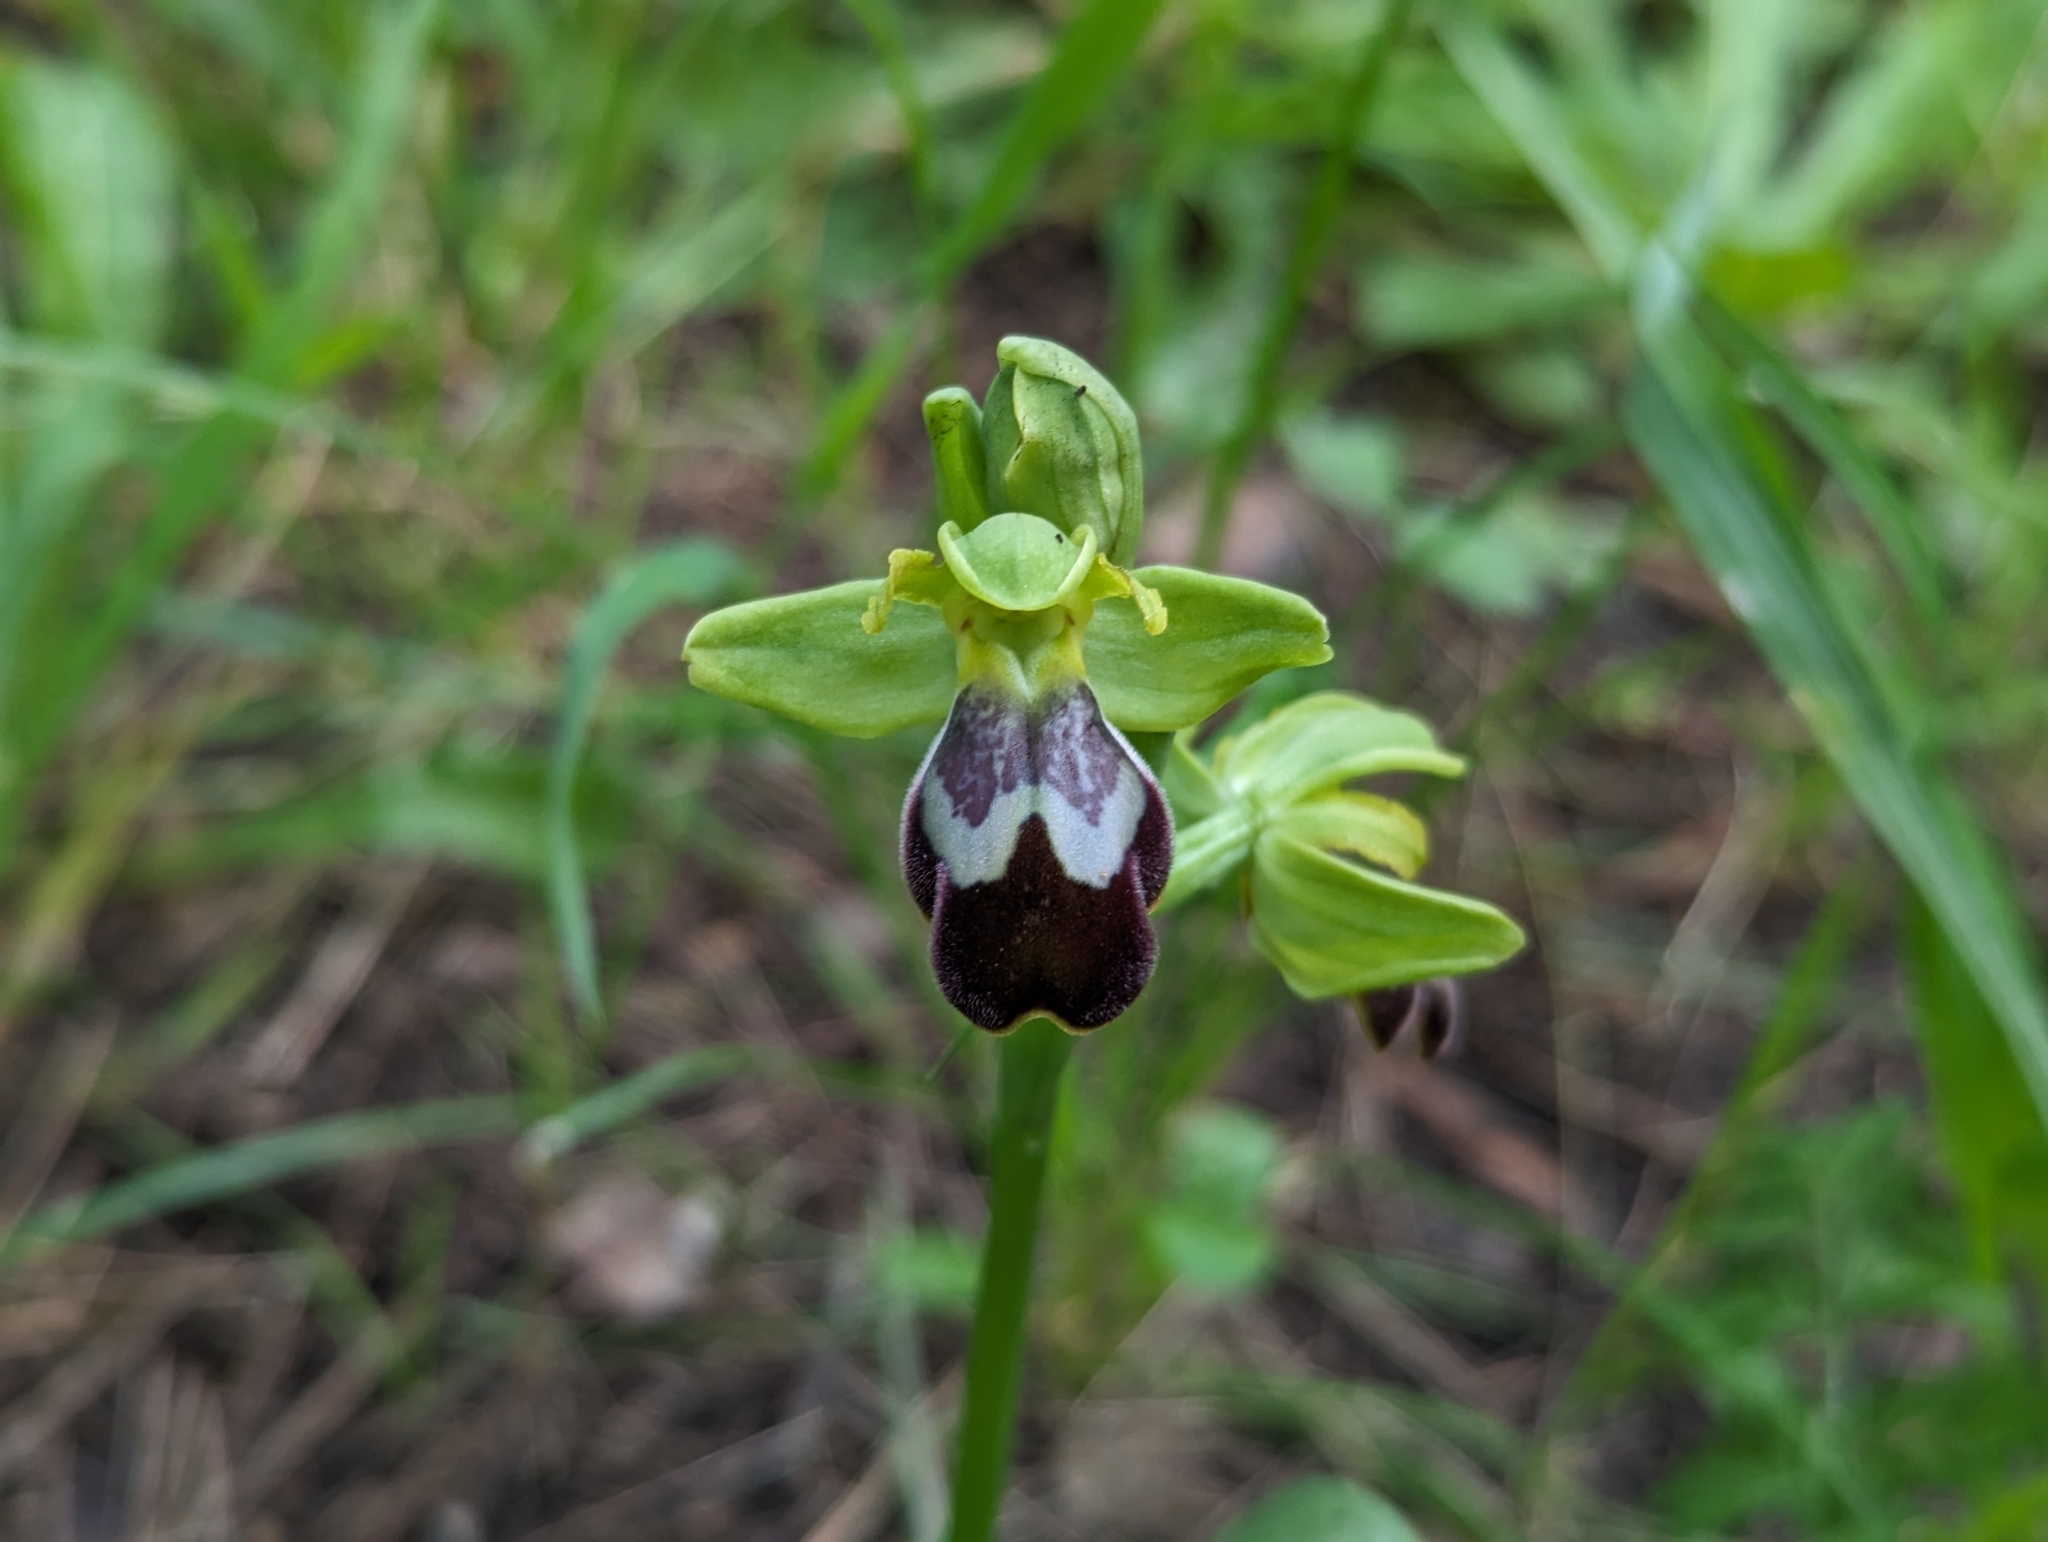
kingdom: Plantae
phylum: Tracheophyta
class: Liliopsida
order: Asparagales
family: Orchidaceae
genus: Ophrys
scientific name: Ophrys fusca
